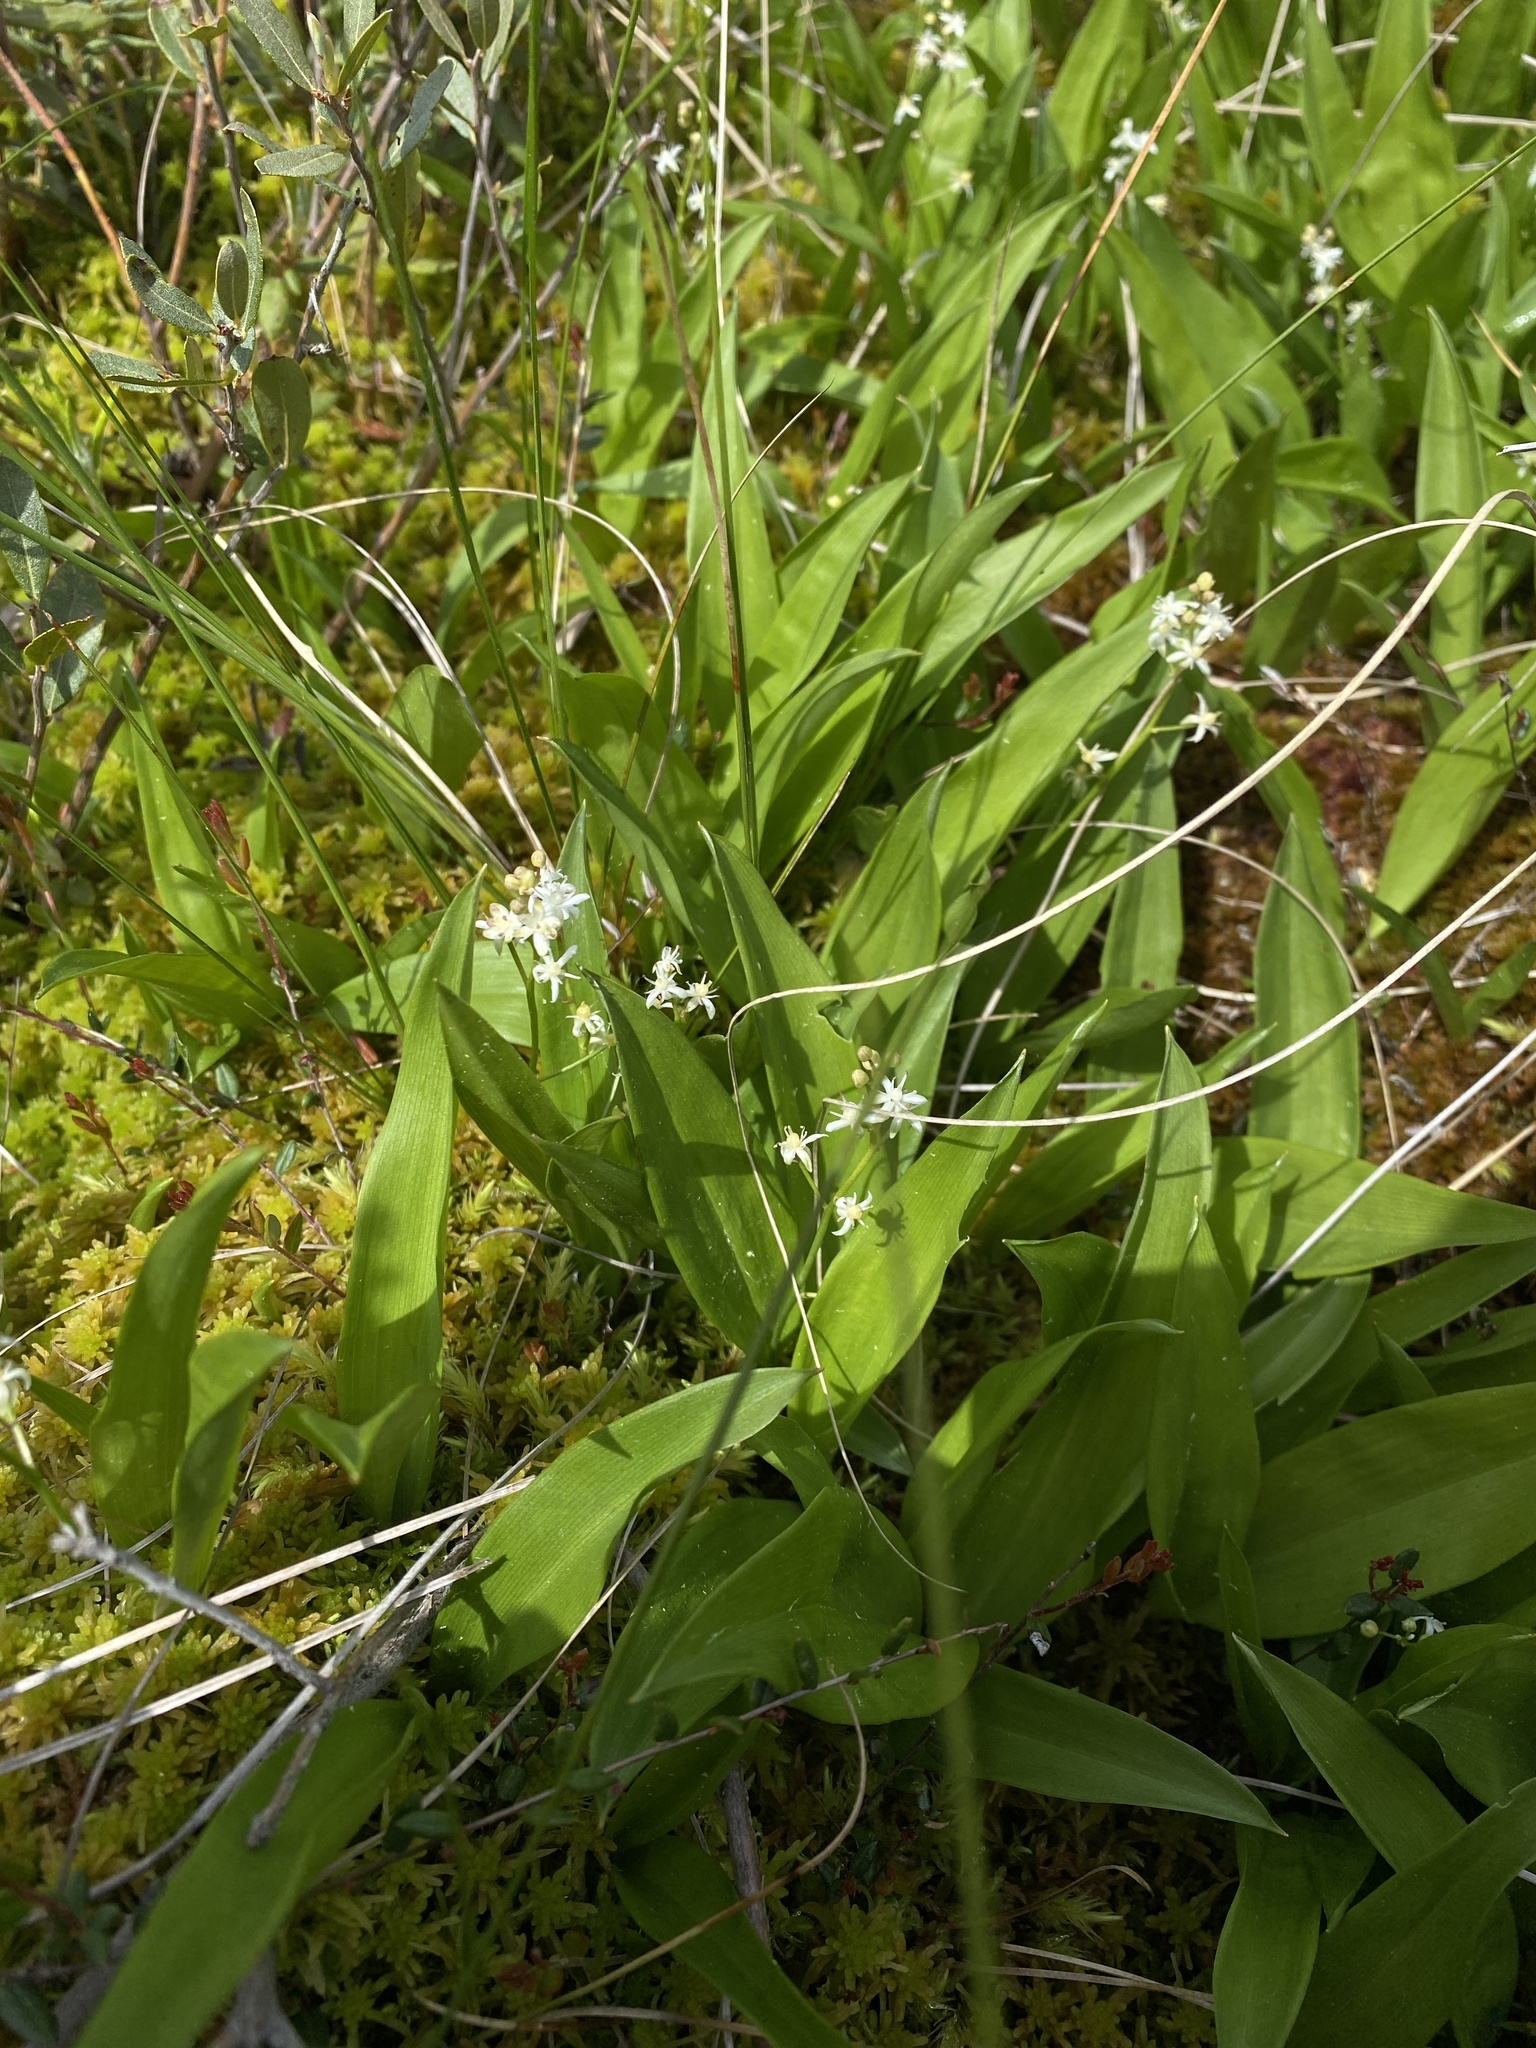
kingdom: Plantae
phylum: Tracheophyta
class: Liliopsida
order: Asparagales
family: Asparagaceae
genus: Maianthemum
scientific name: Maianthemum trifolium
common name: Swamp false solomon's seal
